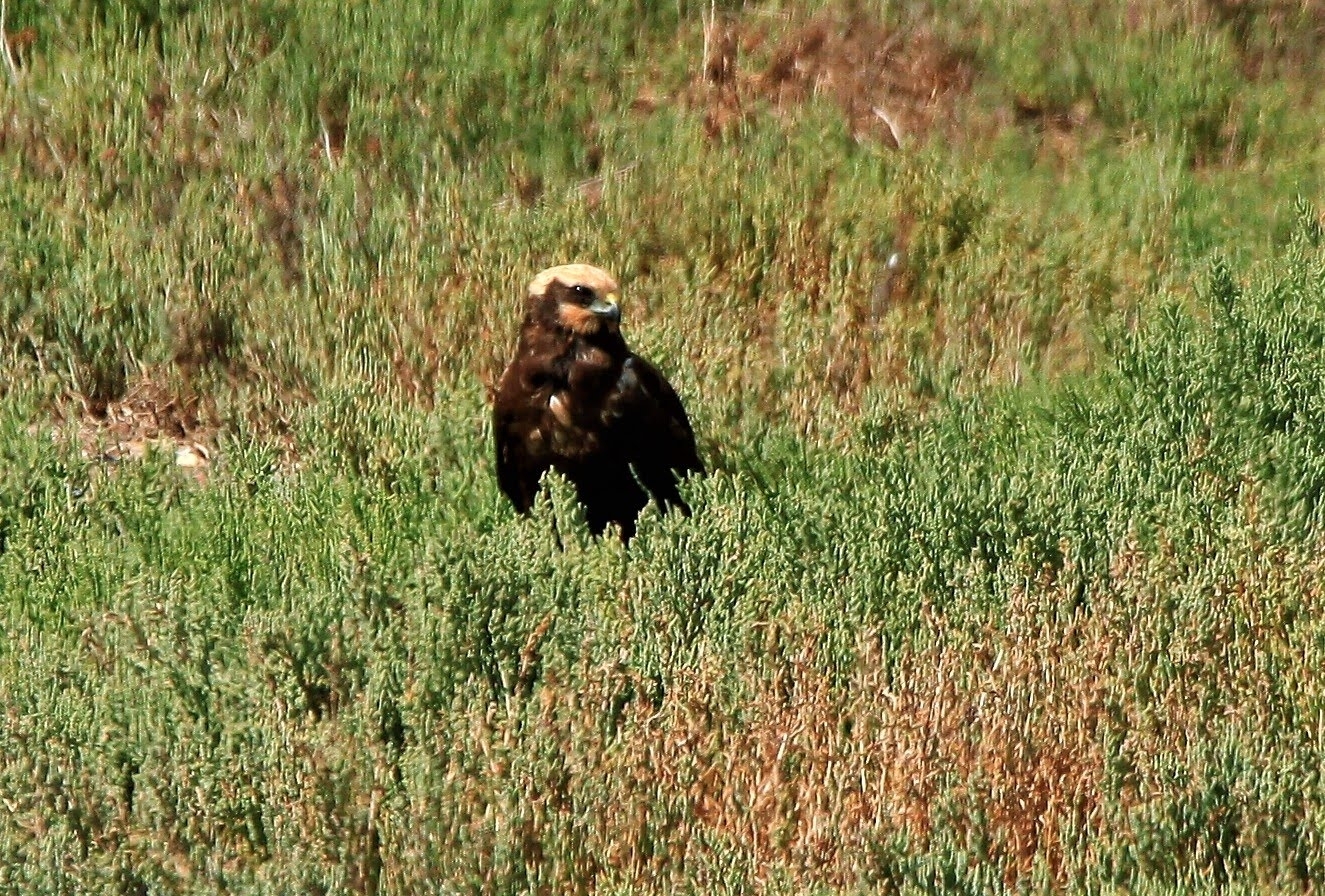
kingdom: Animalia
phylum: Chordata
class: Aves
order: Accipitriformes
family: Accipitridae
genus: Circus
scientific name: Circus aeruginosus
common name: Western marsh harrier
